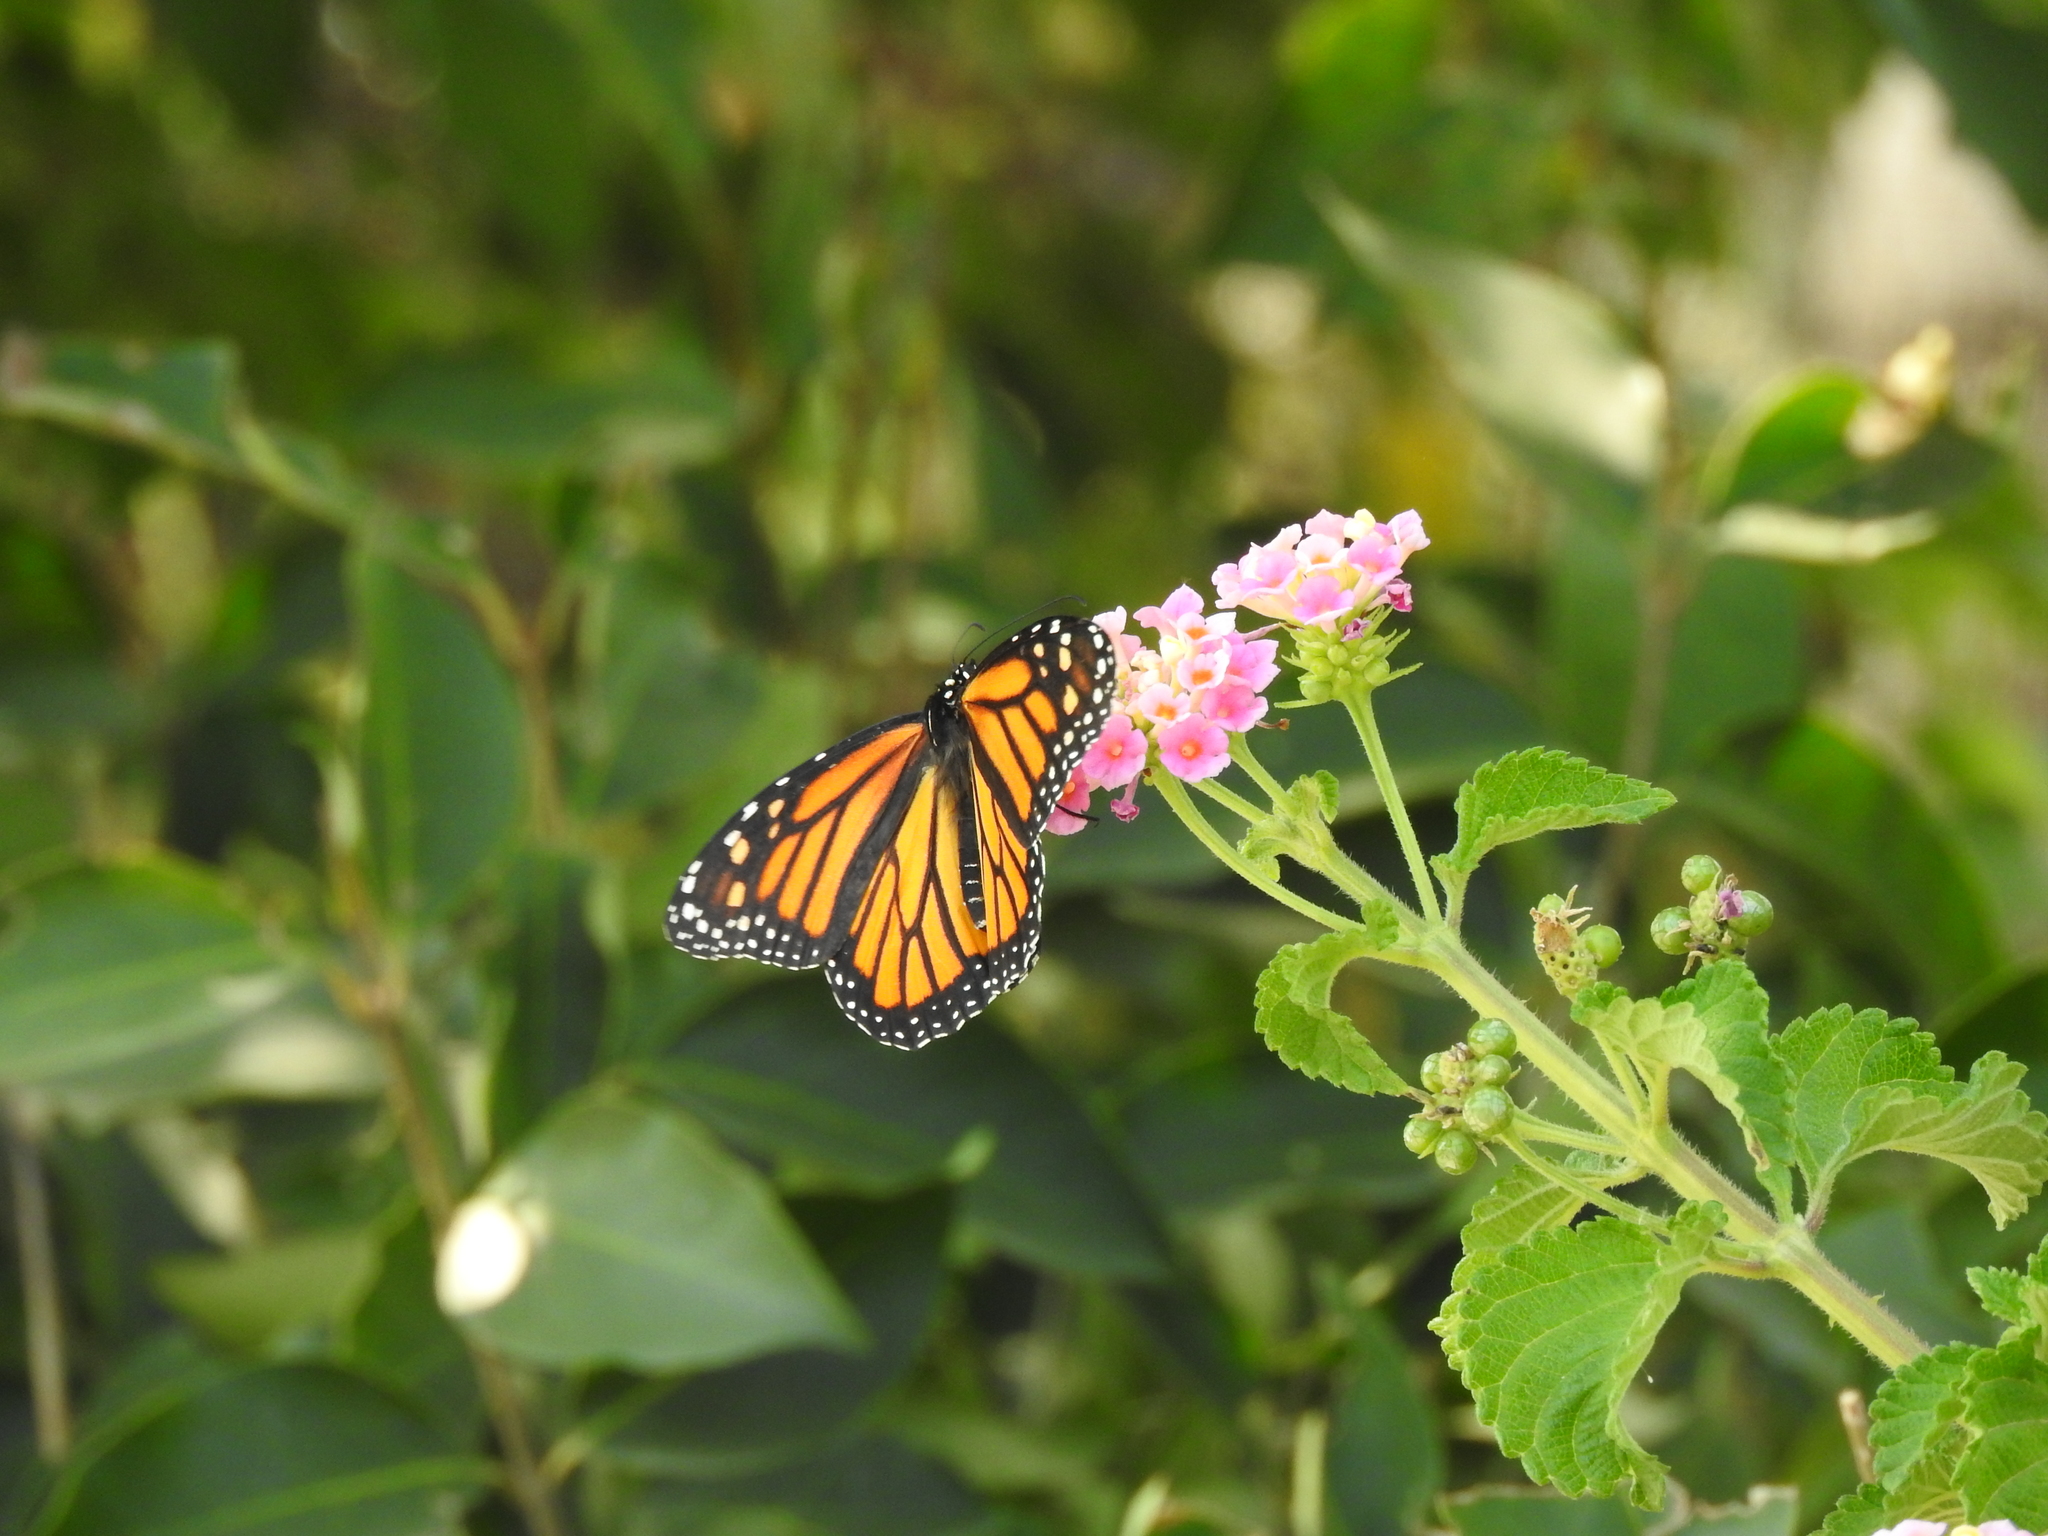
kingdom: Animalia
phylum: Arthropoda
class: Insecta
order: Lepidoptera
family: Nymphalidae
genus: Danaus
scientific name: Danaus plexippus
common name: Monarch
